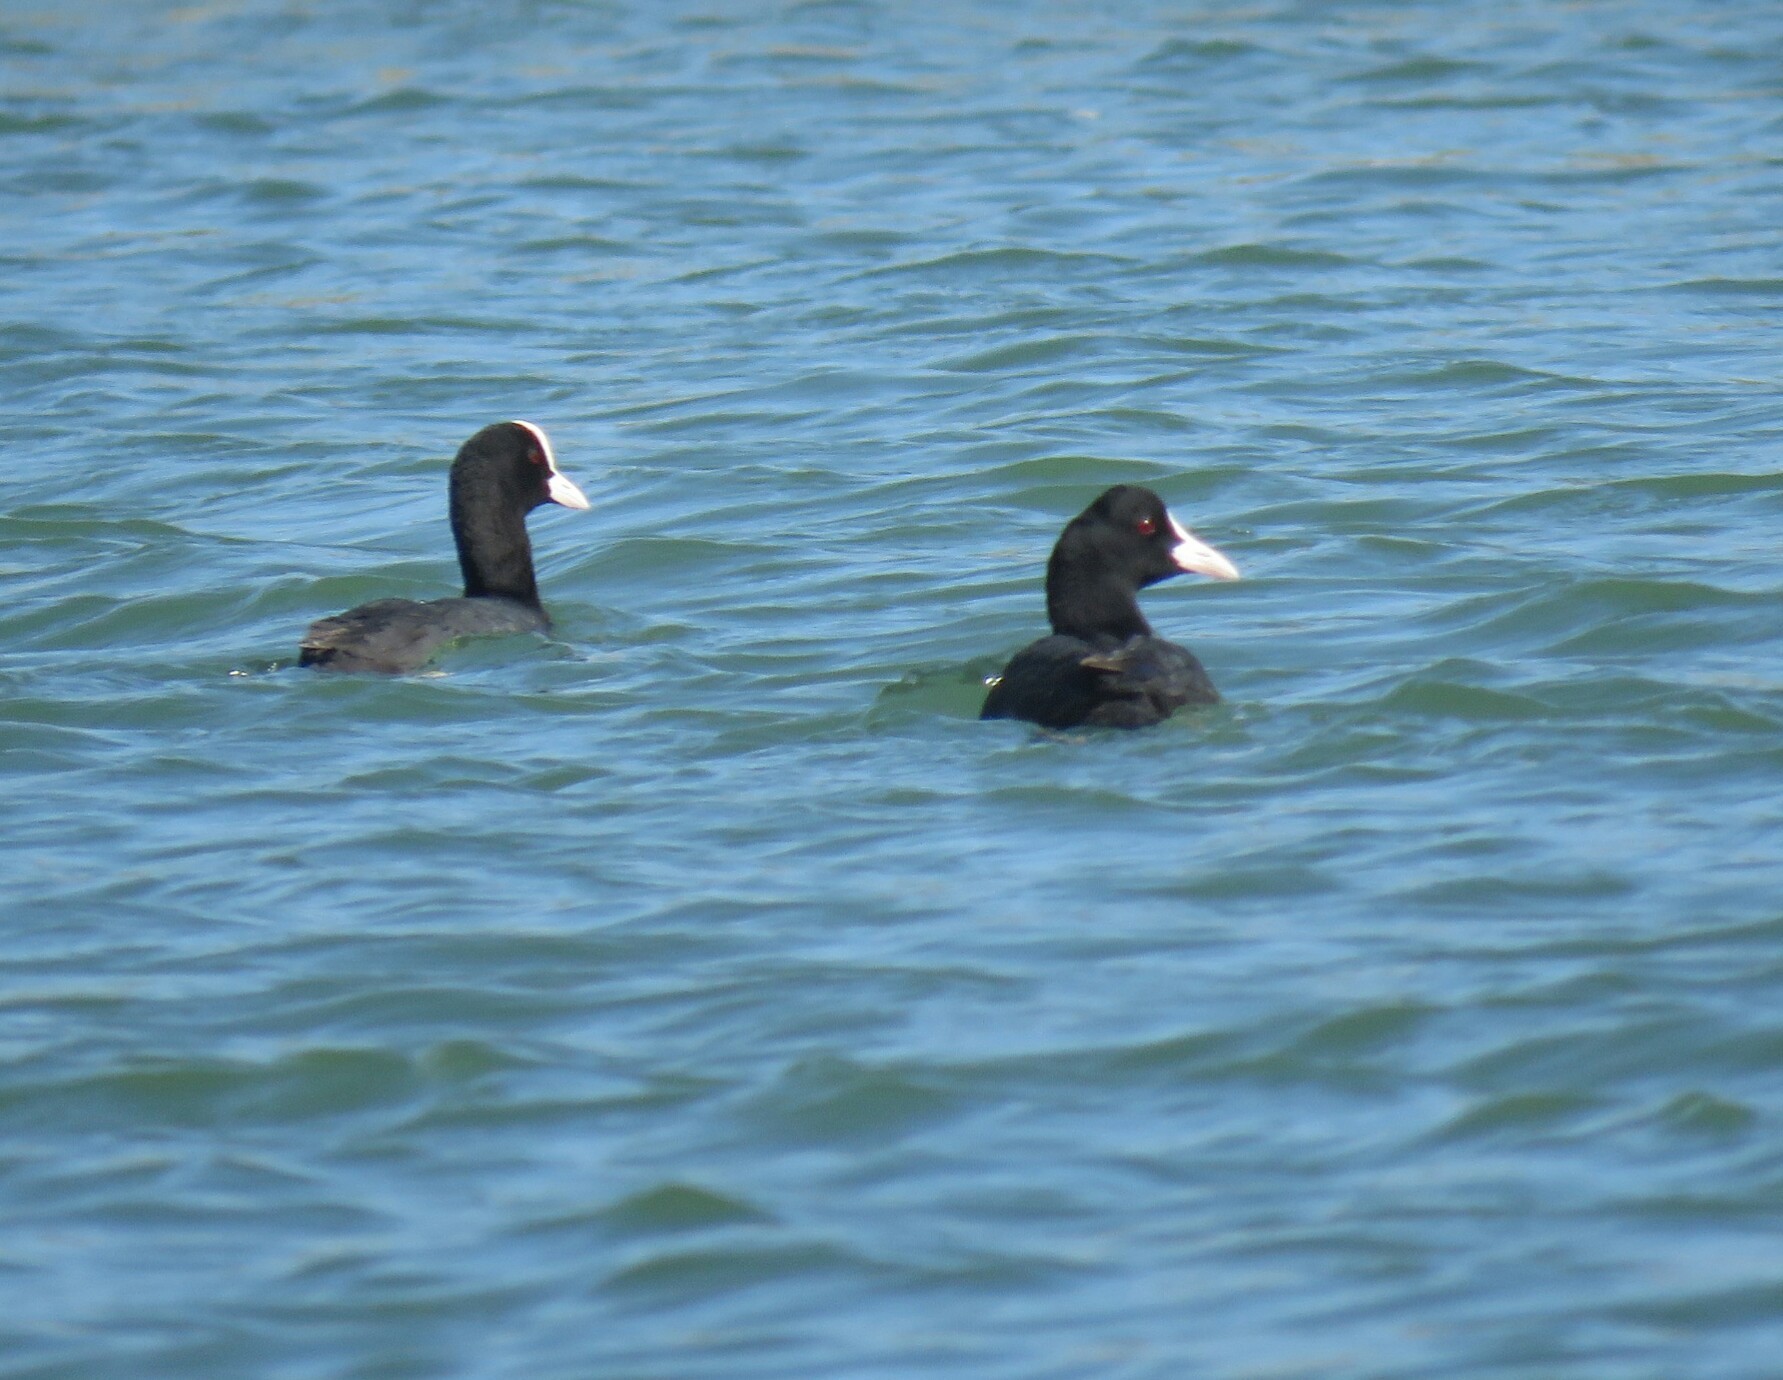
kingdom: Animalia
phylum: Chordata
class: Aves
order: Gruiformes
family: Rallidae
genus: Fulica
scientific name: Fulica atra
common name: Eurasian coot
